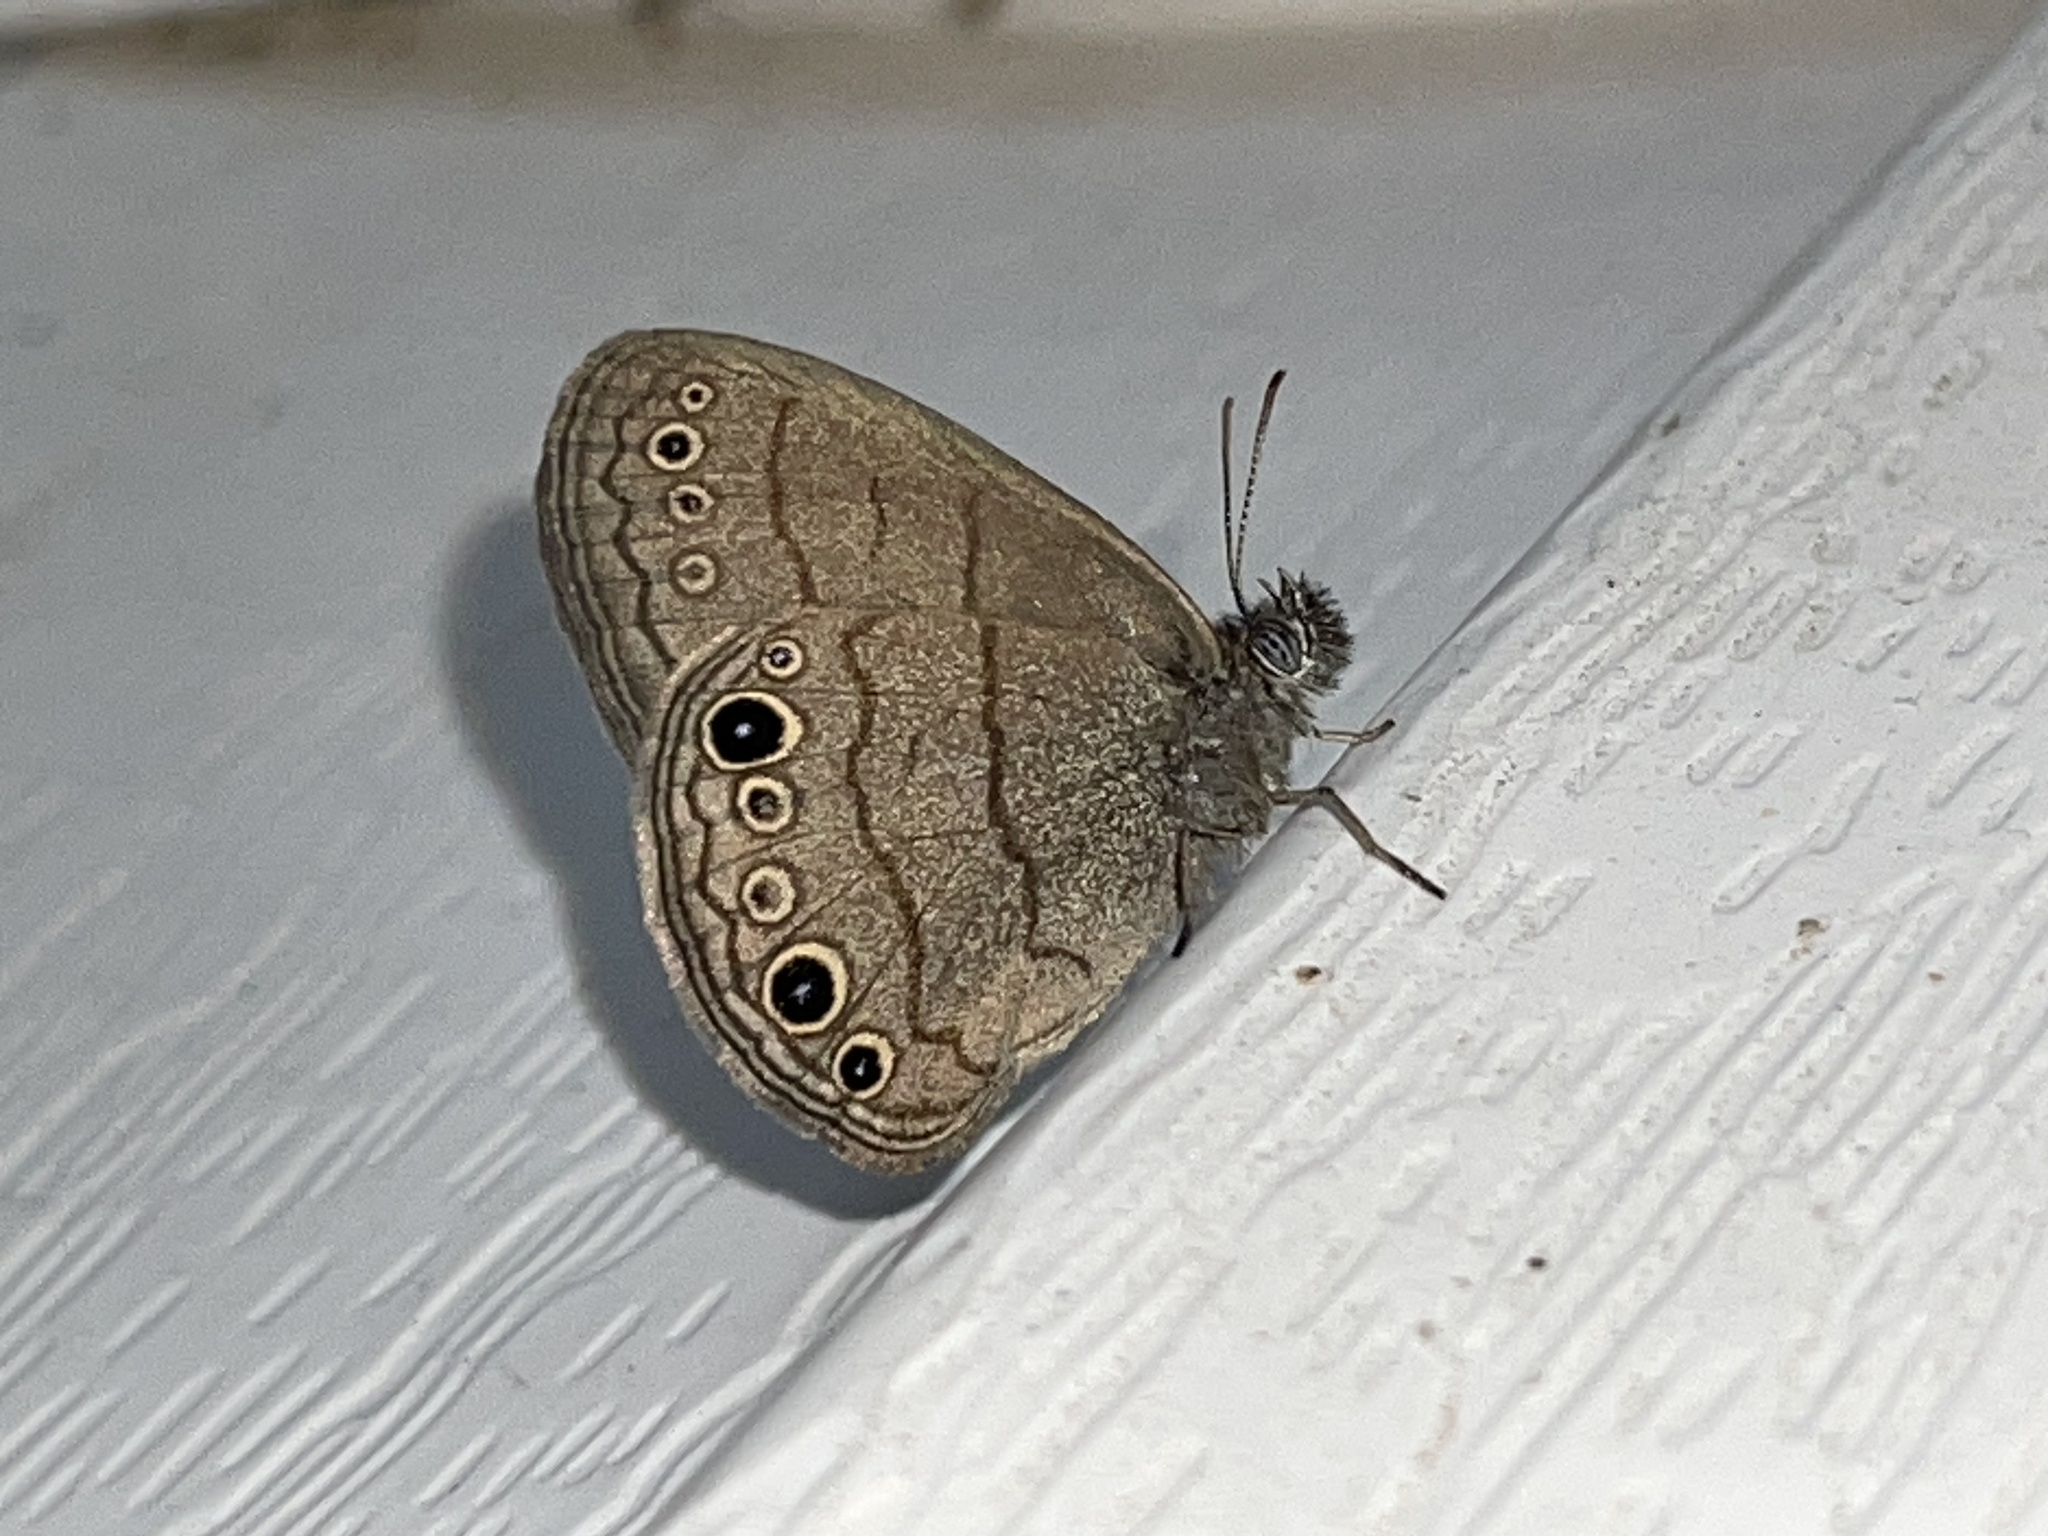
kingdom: Animalia
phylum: Arthropoda
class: Insecta
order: Lepidoptera
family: Nymphalidae
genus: Hermeuptychia
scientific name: Hermeuptychia hermes
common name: Hermes satyr
